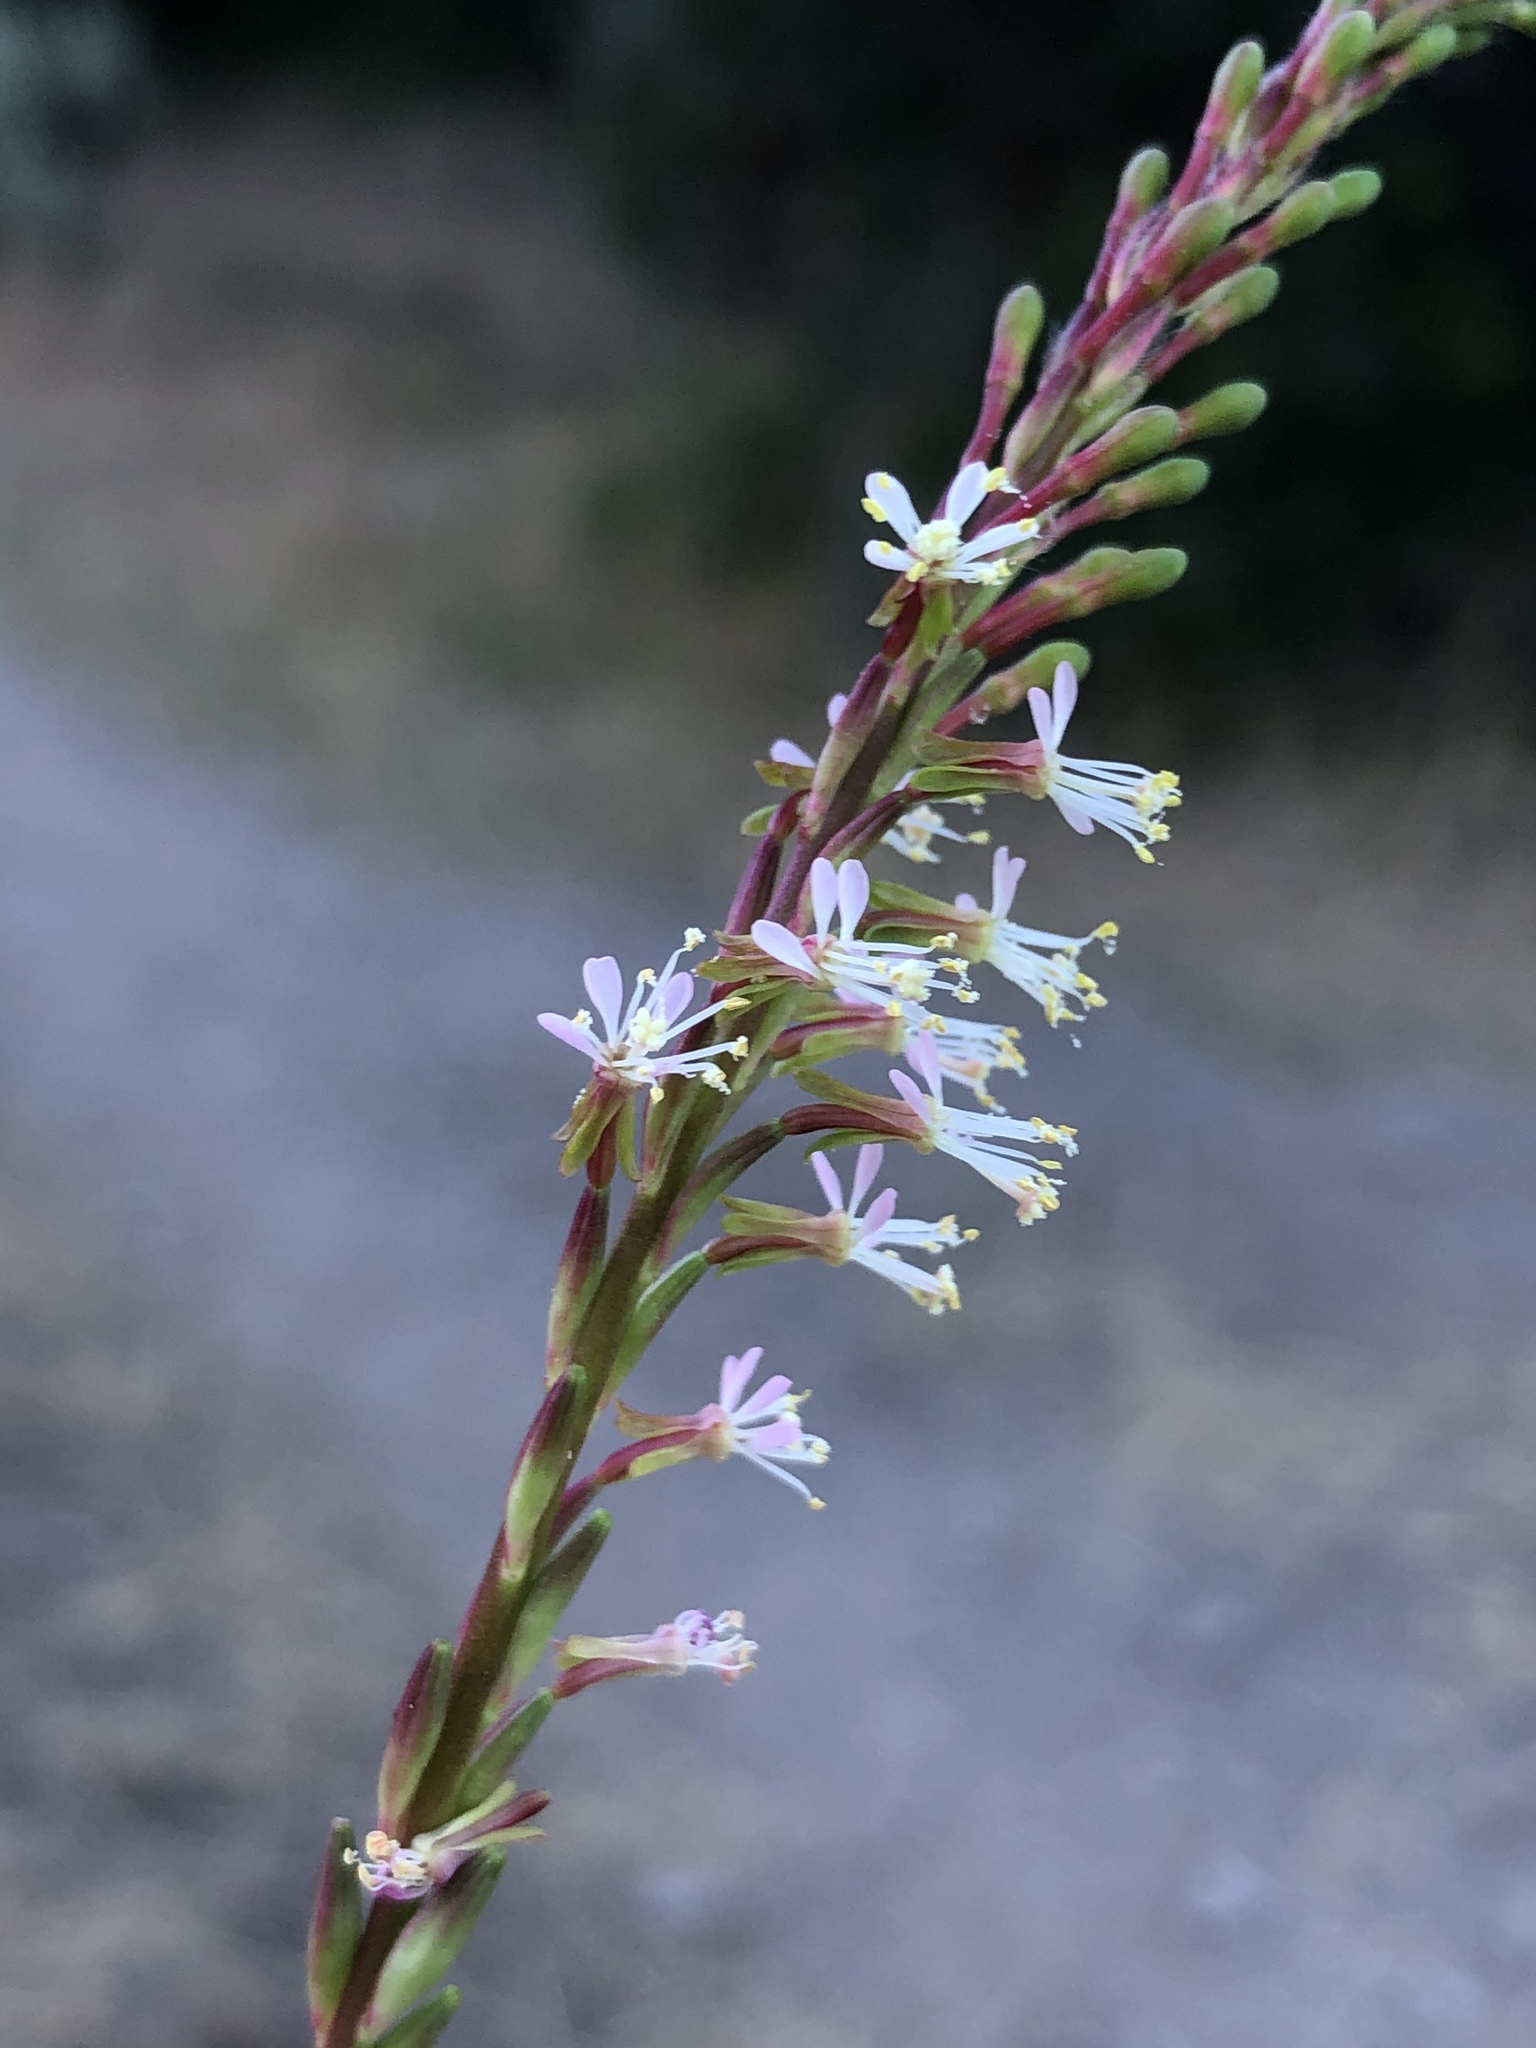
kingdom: Plantae
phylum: Tracheophyta
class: Magnoliopsida
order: Myrtales
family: Onagraceae
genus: Oenothera
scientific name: Oenothera curtiflora
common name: Velvetweed
